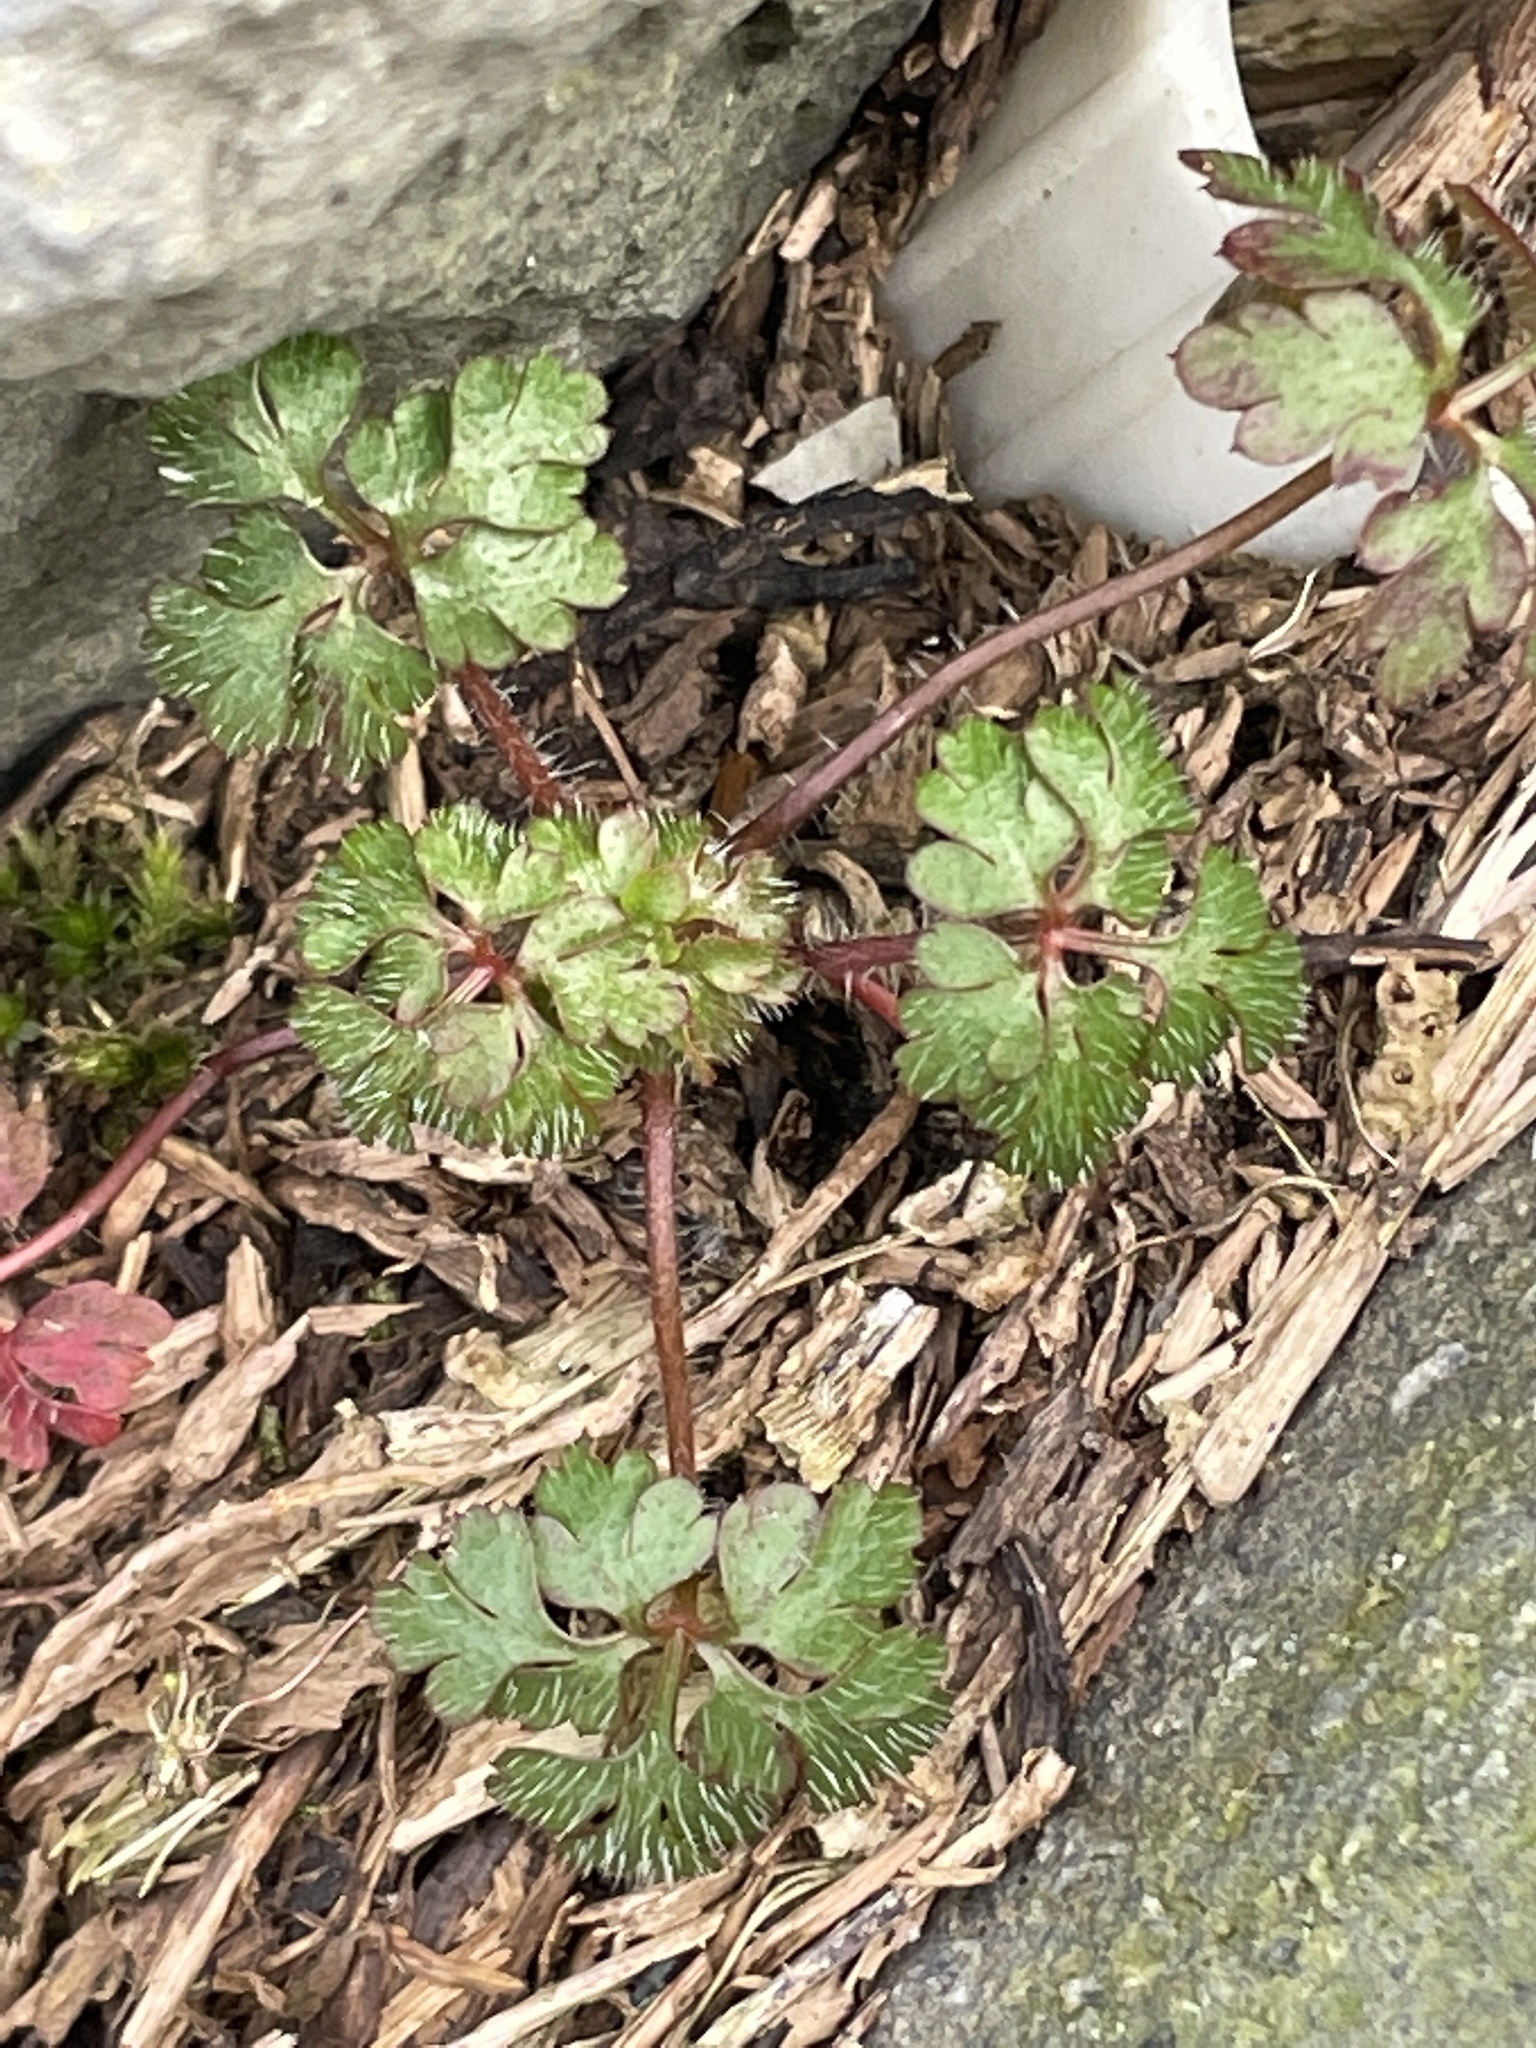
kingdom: Plantae
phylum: Tracheophyta
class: Magnoliopsida
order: Geraniales
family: Geraniaceae
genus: Geranium
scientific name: Geranium robertianum
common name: Herb-robert
